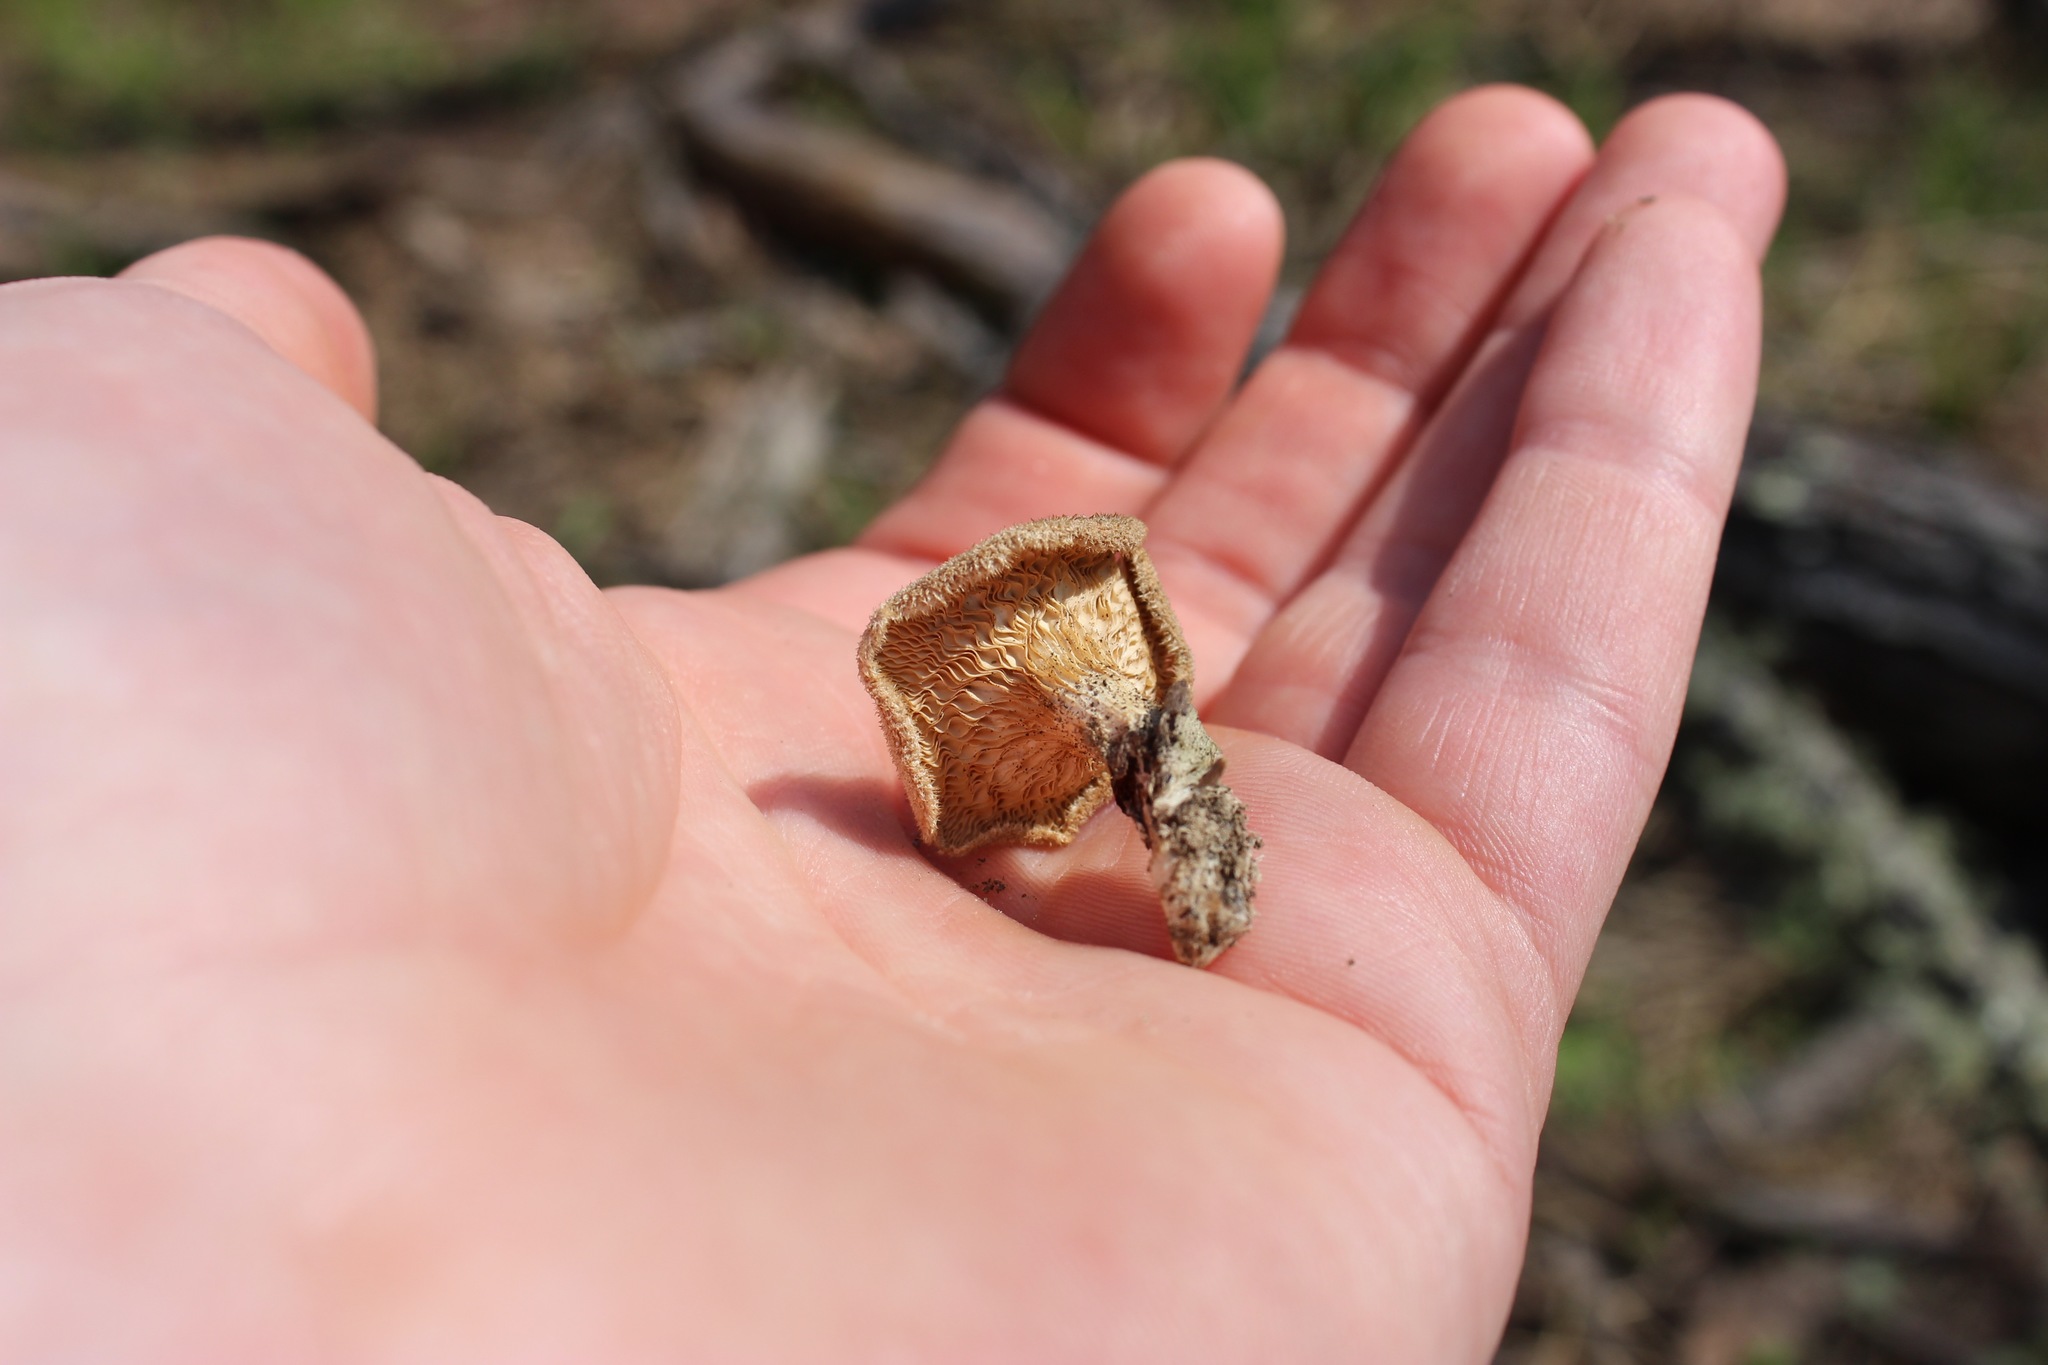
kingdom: Fungi
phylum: Basidiomycota
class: Agaricomycetes
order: Polyporales
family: Panaceae
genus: Panus
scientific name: Panus neostrigosus
